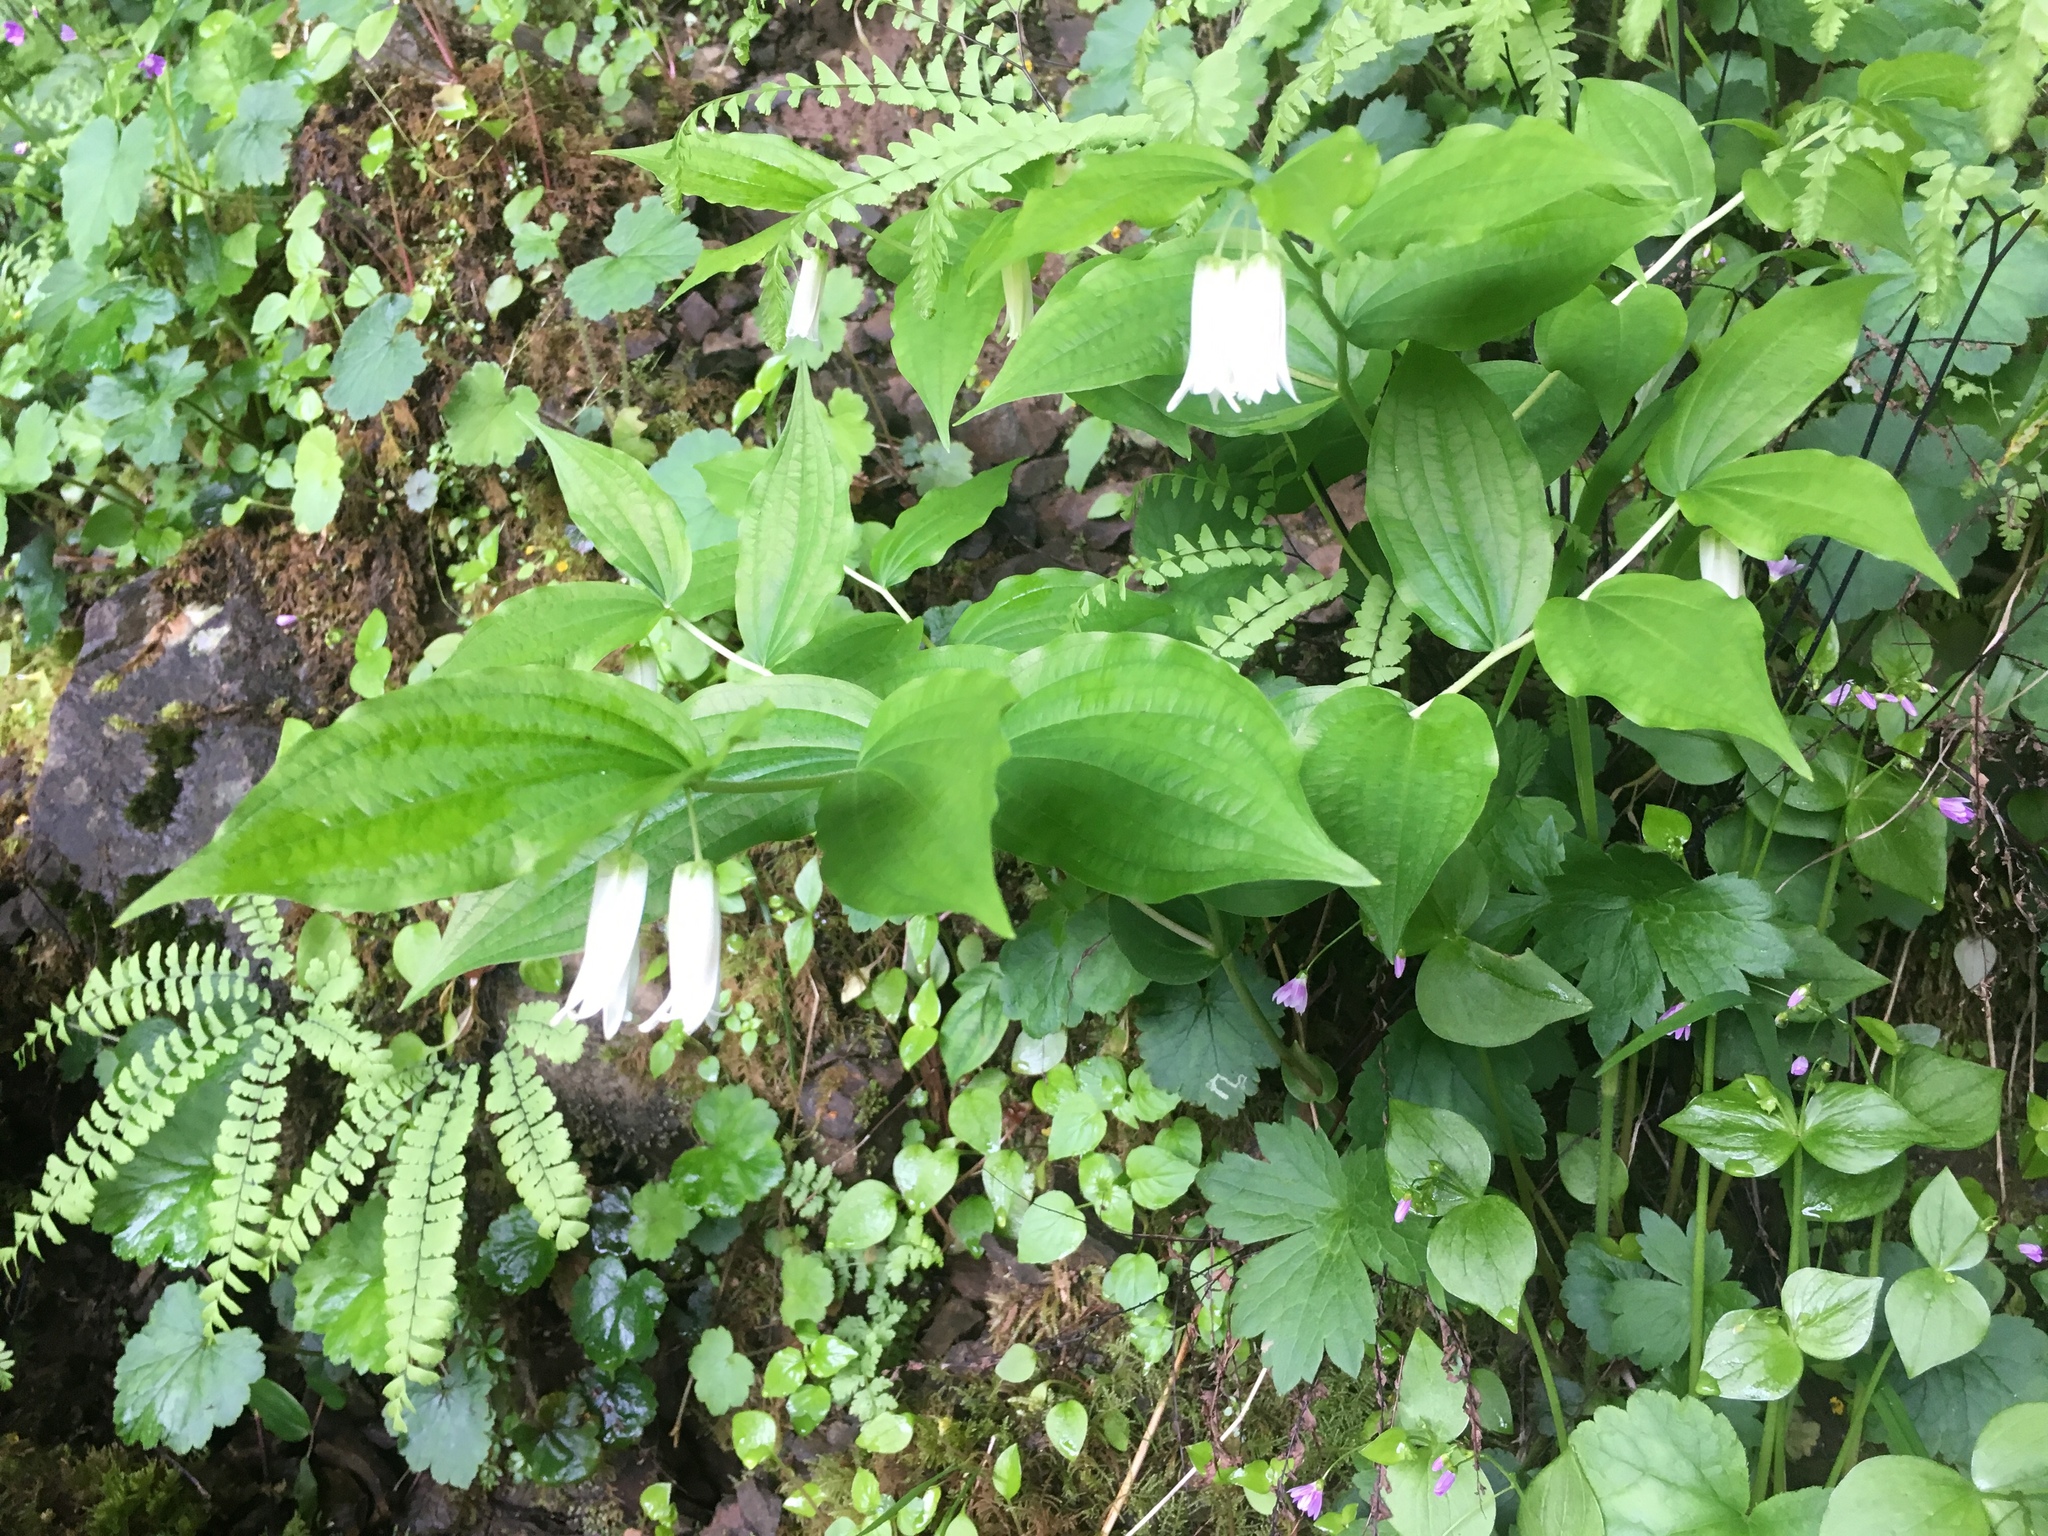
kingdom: Plantae
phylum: Tracheophyta
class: Liliopsida
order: Liliales
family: Liliaceae
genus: Prosartes
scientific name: Prosartes smithii
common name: Fairy-lantern
